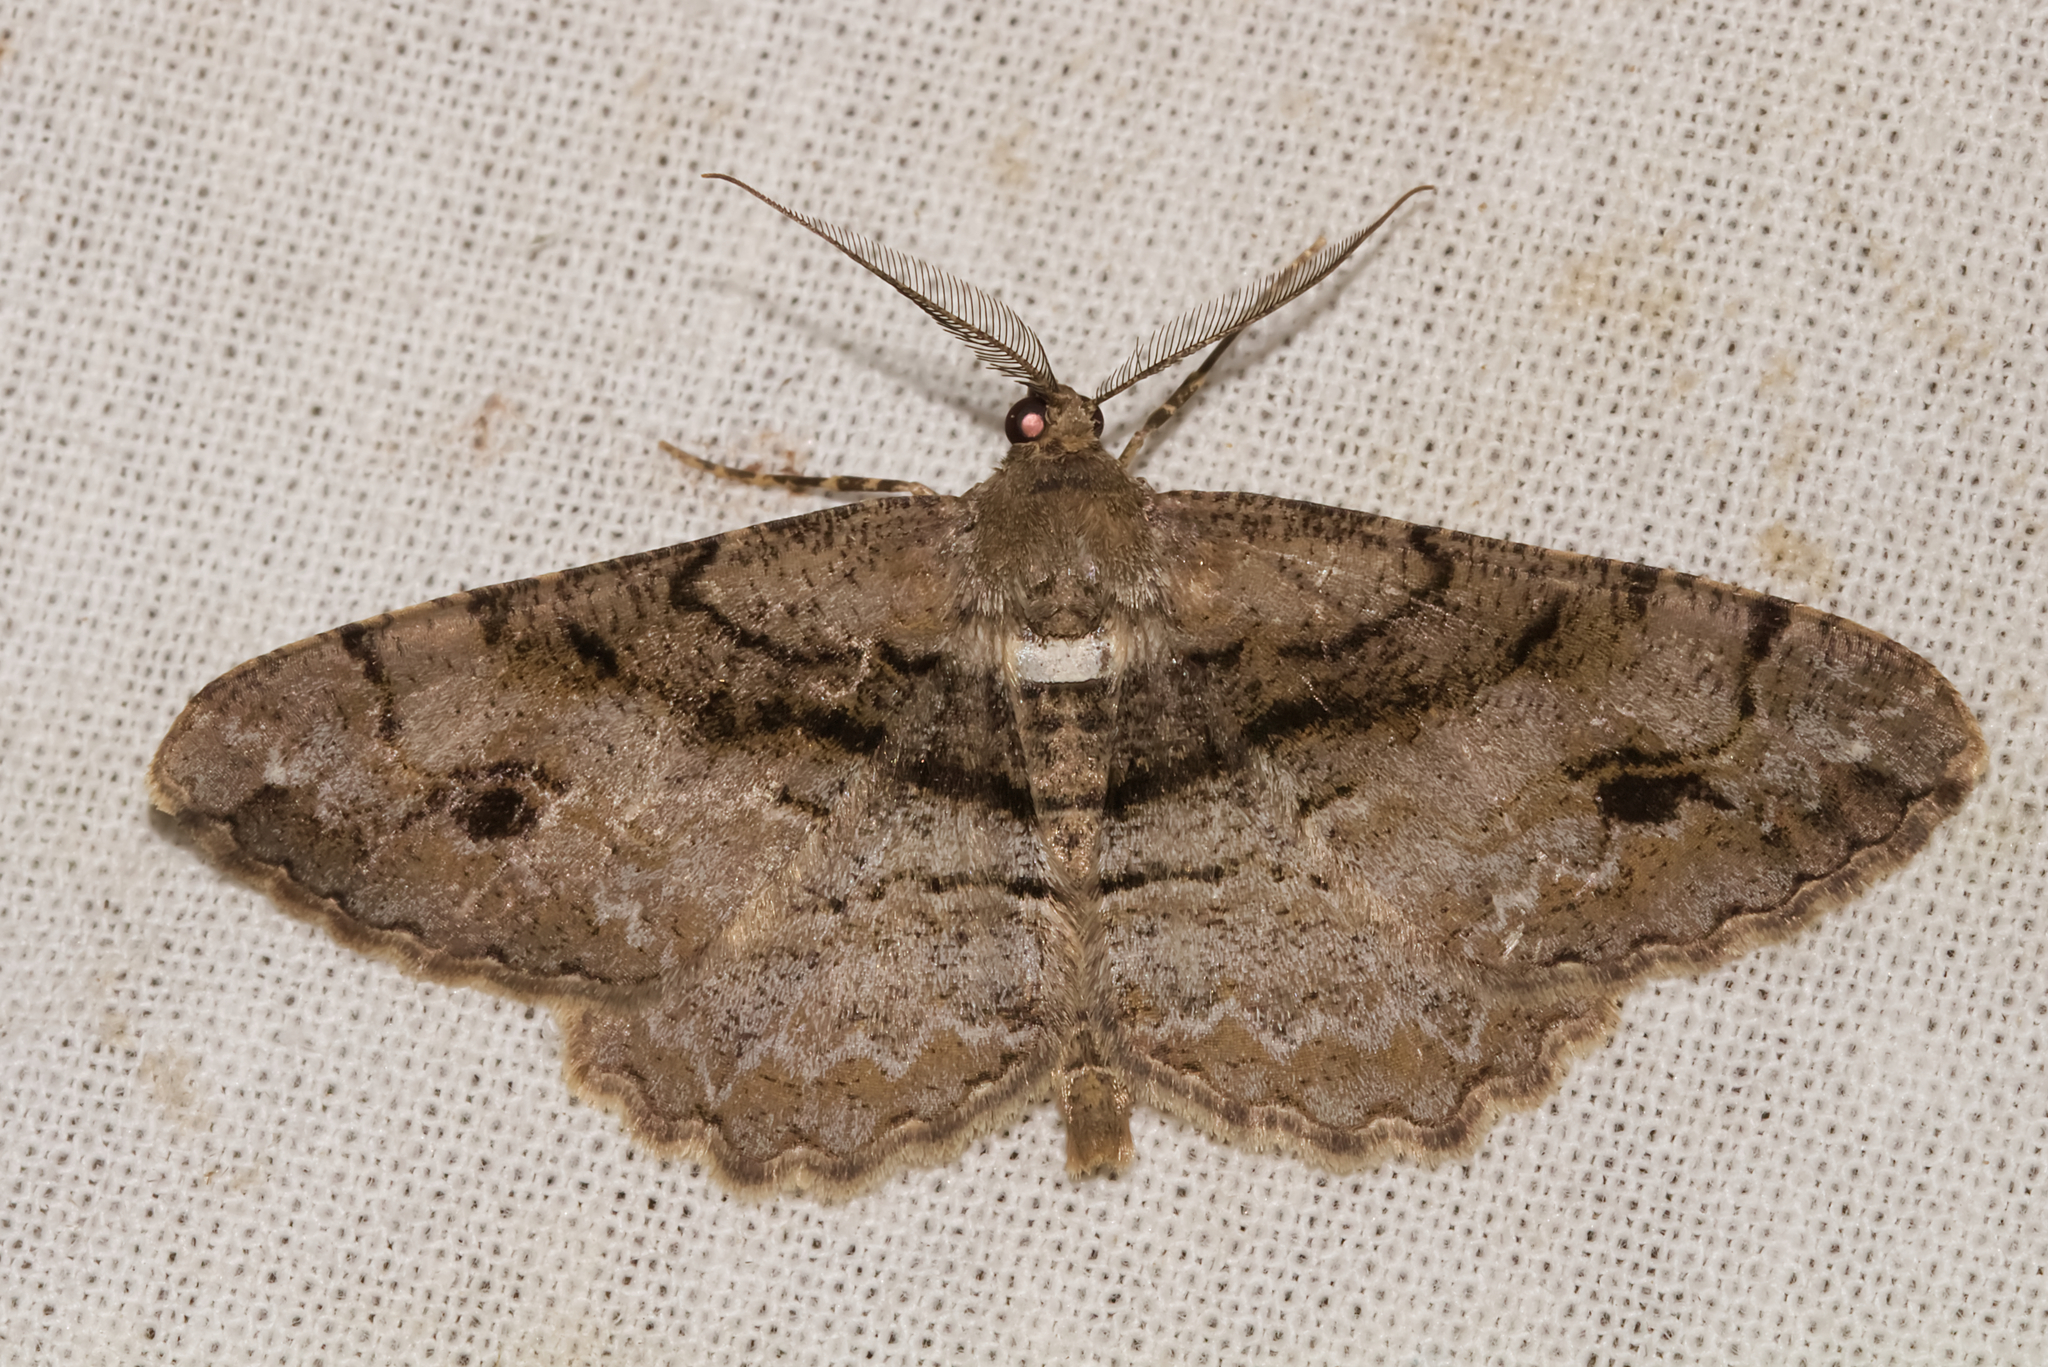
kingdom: Animalia
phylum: Arthropoda
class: Insecta
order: Lepidoptera
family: Geometridae
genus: Alcis
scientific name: Alcis deversata
